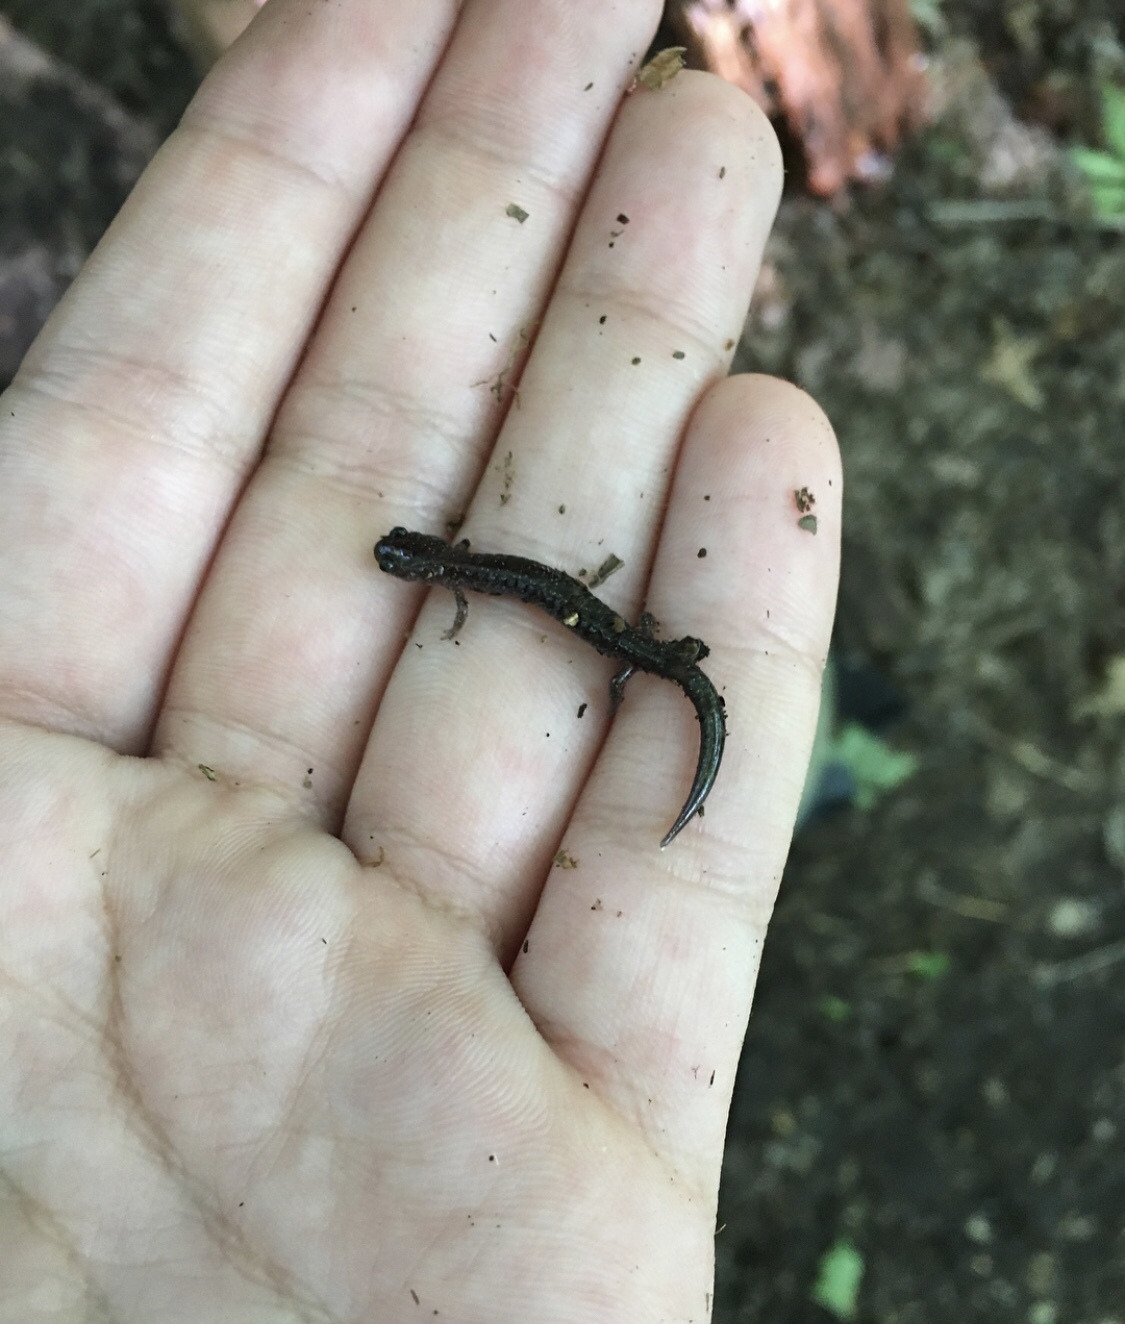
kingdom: Animalia
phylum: Chordata
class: Amphibia
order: Caudata
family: Plethodontidae
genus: Plethodon
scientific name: Plethodon cinereus
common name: Redback salamander
